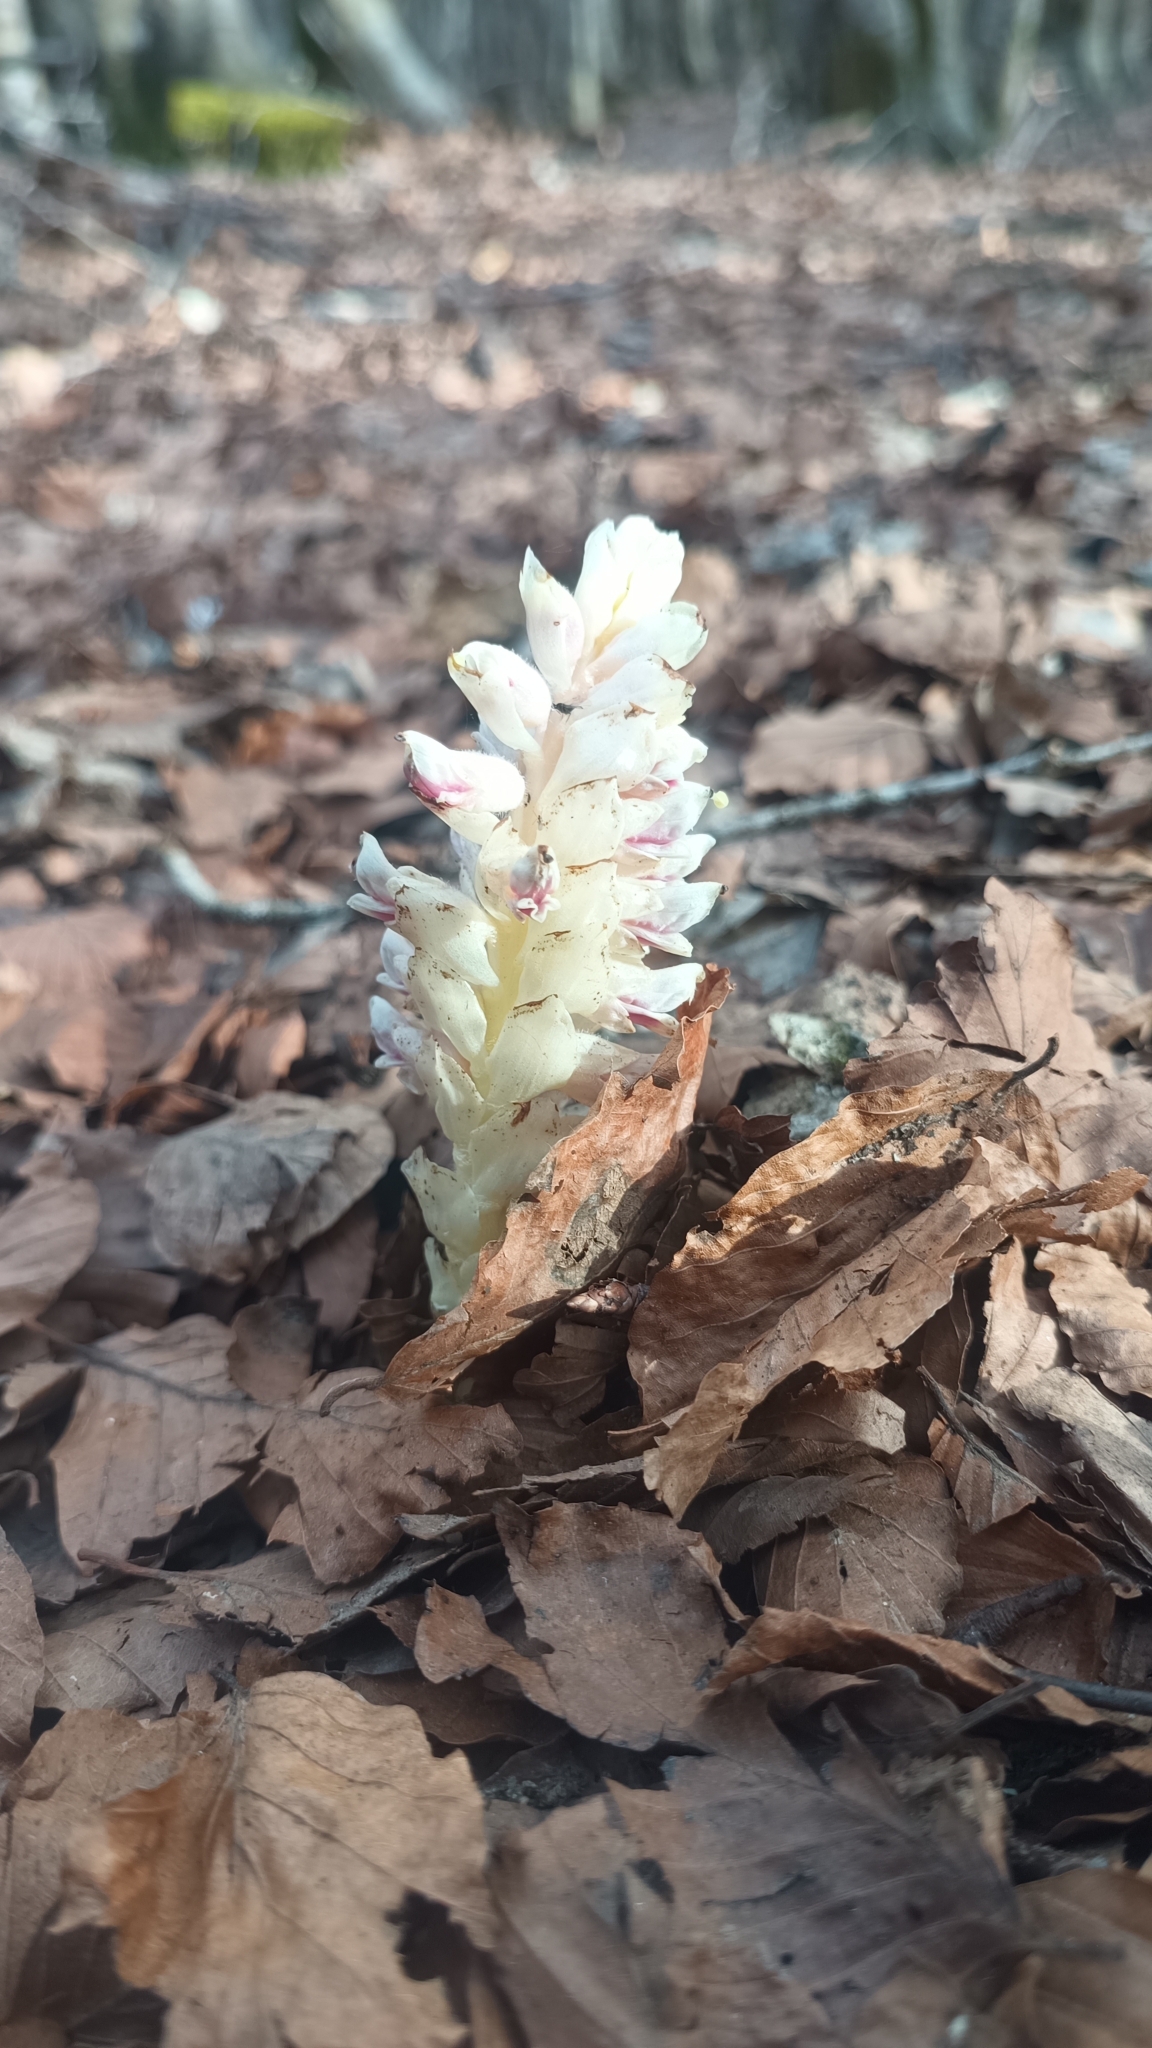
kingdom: Plantae
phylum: Tracheophyta
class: Magnoliopsida
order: Lamiales
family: Orobanchaceae
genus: Lathraea
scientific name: Lathraea squamaria
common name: Toothwort
